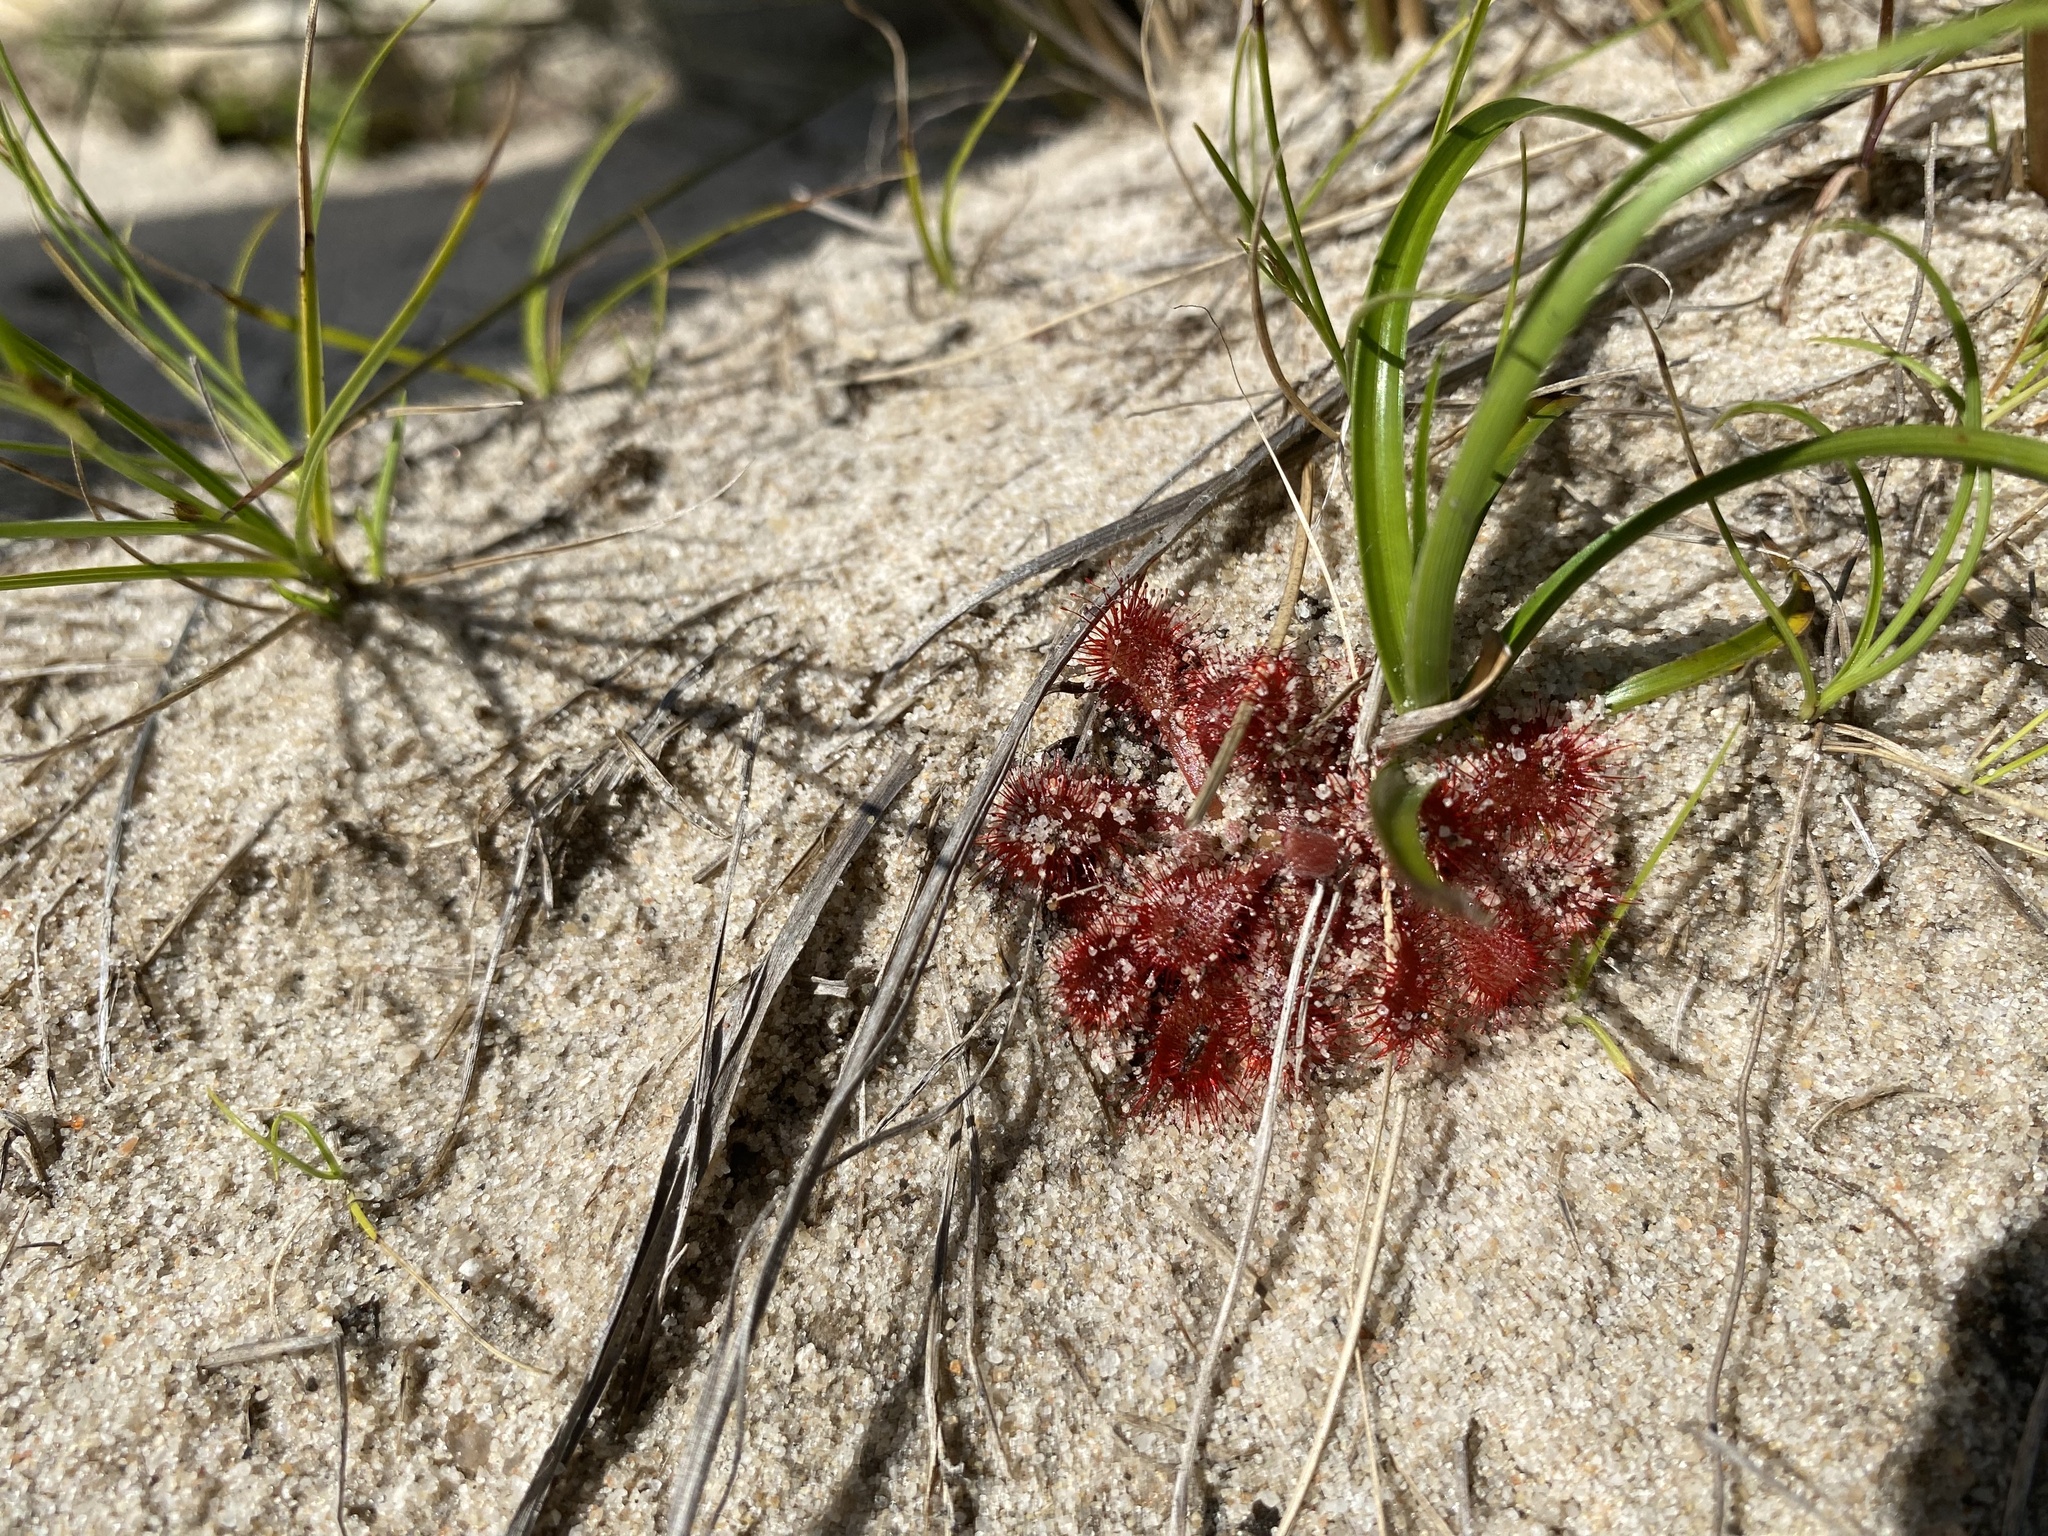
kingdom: Plantae
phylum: Tracheophyta
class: Magnoliopsida
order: Caryophyllales
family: Droseraceae
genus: Drosera
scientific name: Drosera natalensis
